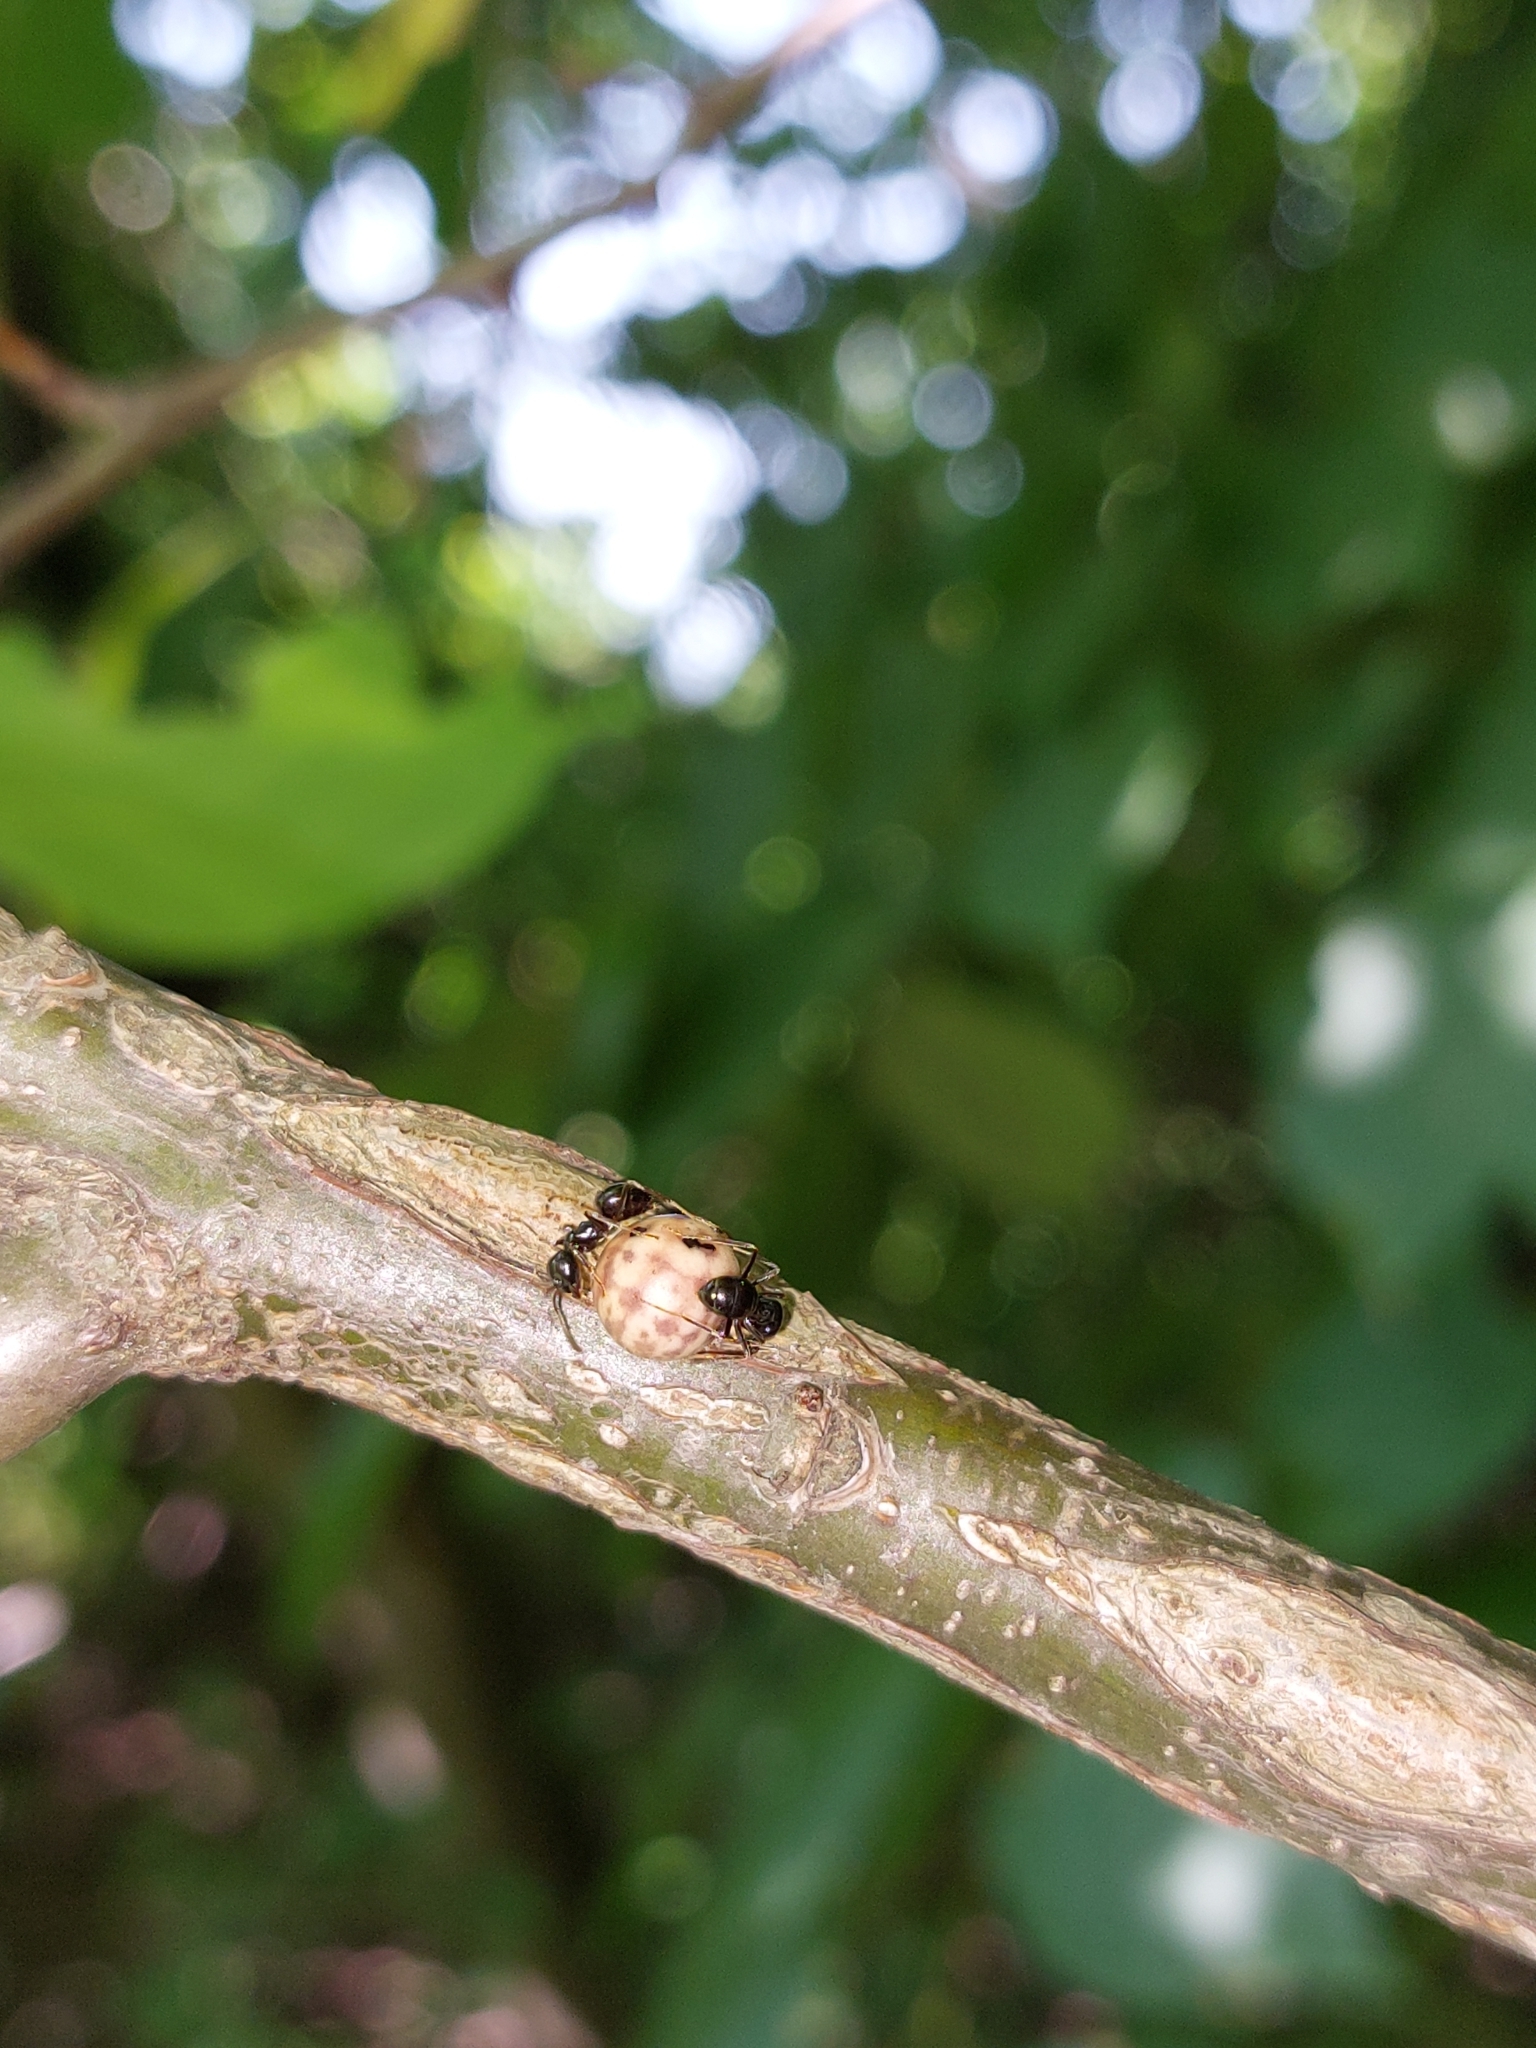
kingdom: Animalia
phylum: Arthropoda
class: Insecta
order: Hemiptera
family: Kermesidae
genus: Kermes
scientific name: Kermes roboris
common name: English oak kermes
